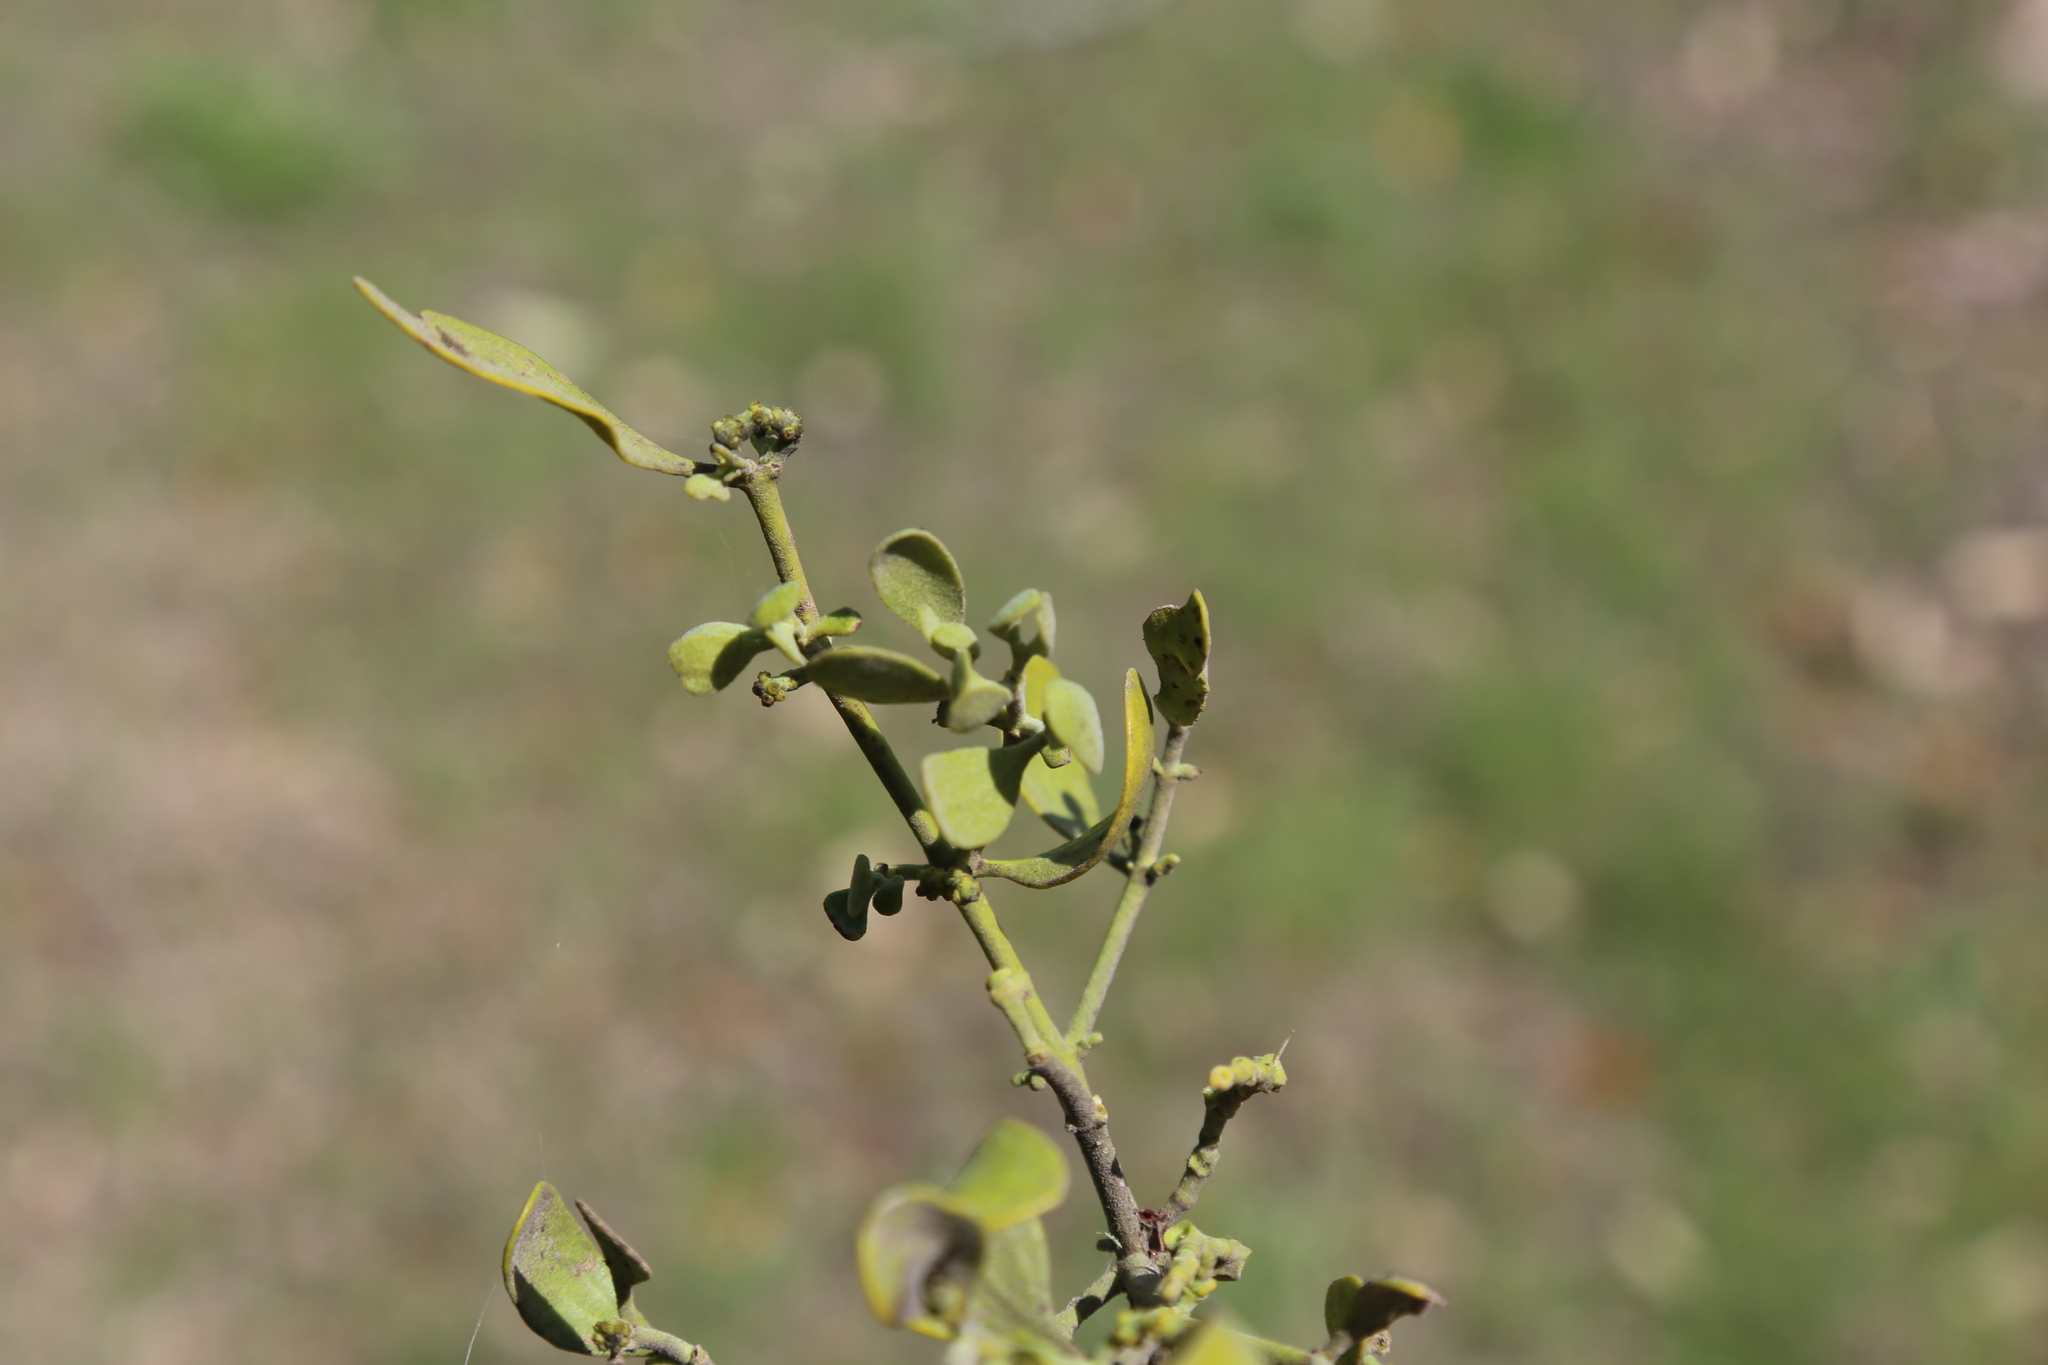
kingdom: Plantae
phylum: Tracheophyta
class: Magnoliopsida
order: Santalales
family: Viscaceae
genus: Phoradendron
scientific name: Phoradendron leucarpum
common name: Pacific mistletoe
